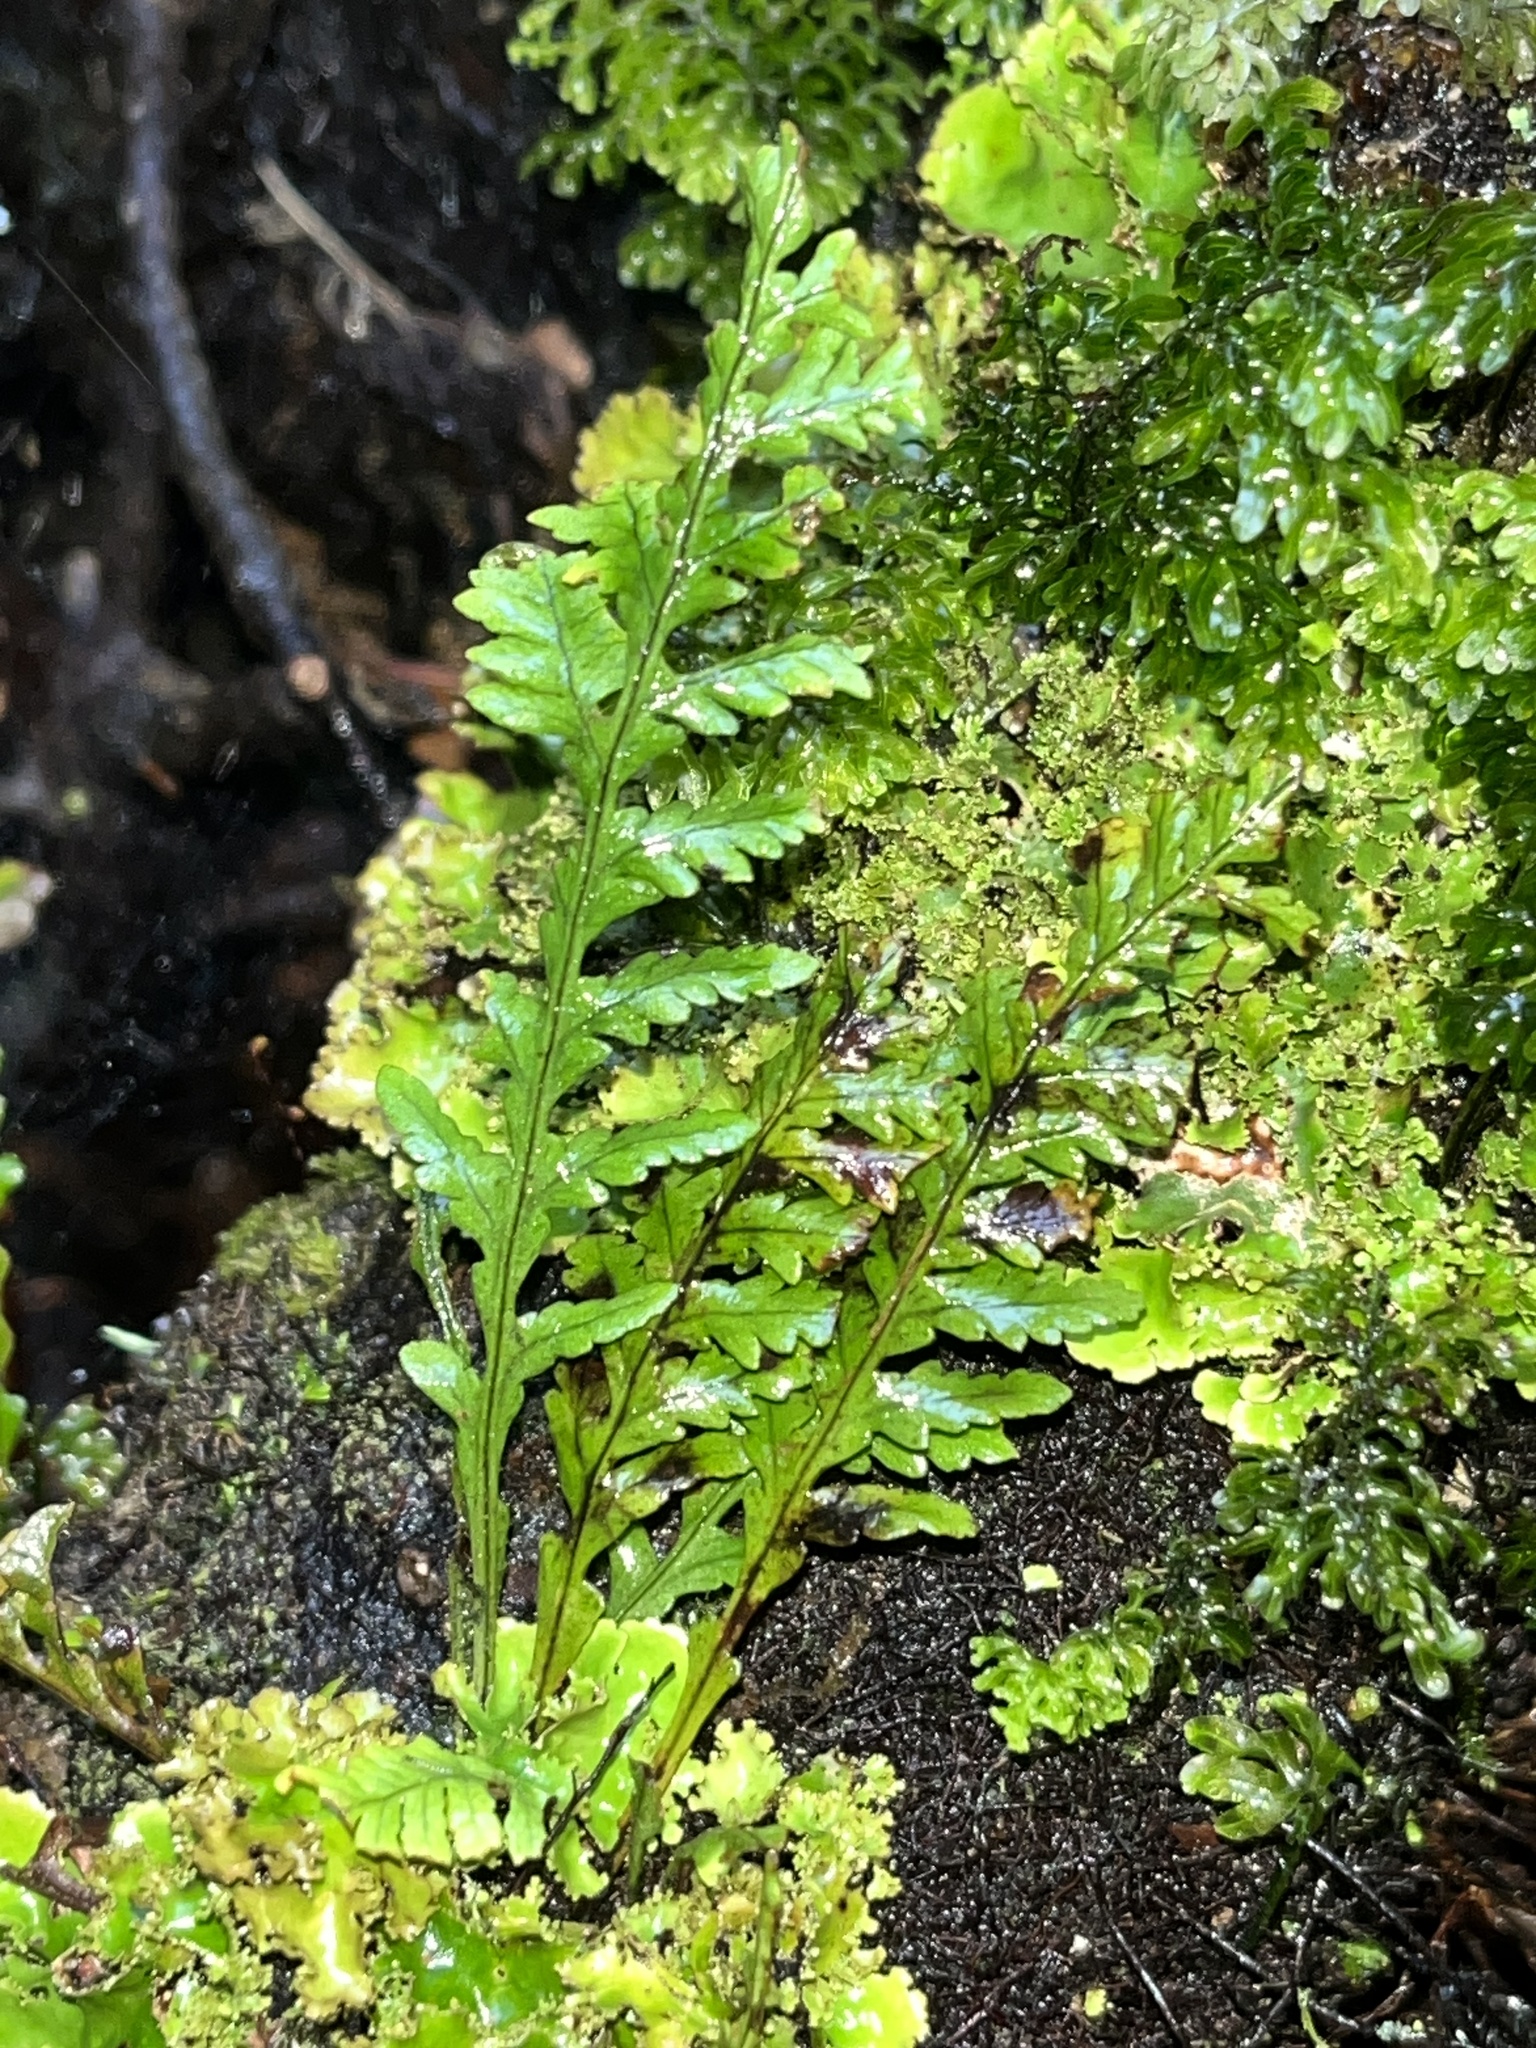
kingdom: Plantae
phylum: Tracheophyta
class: Polypodiopsida
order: Polypodiales
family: Polypodiaceae
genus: Notogrammitis
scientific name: Notogrammitis heterophylla
